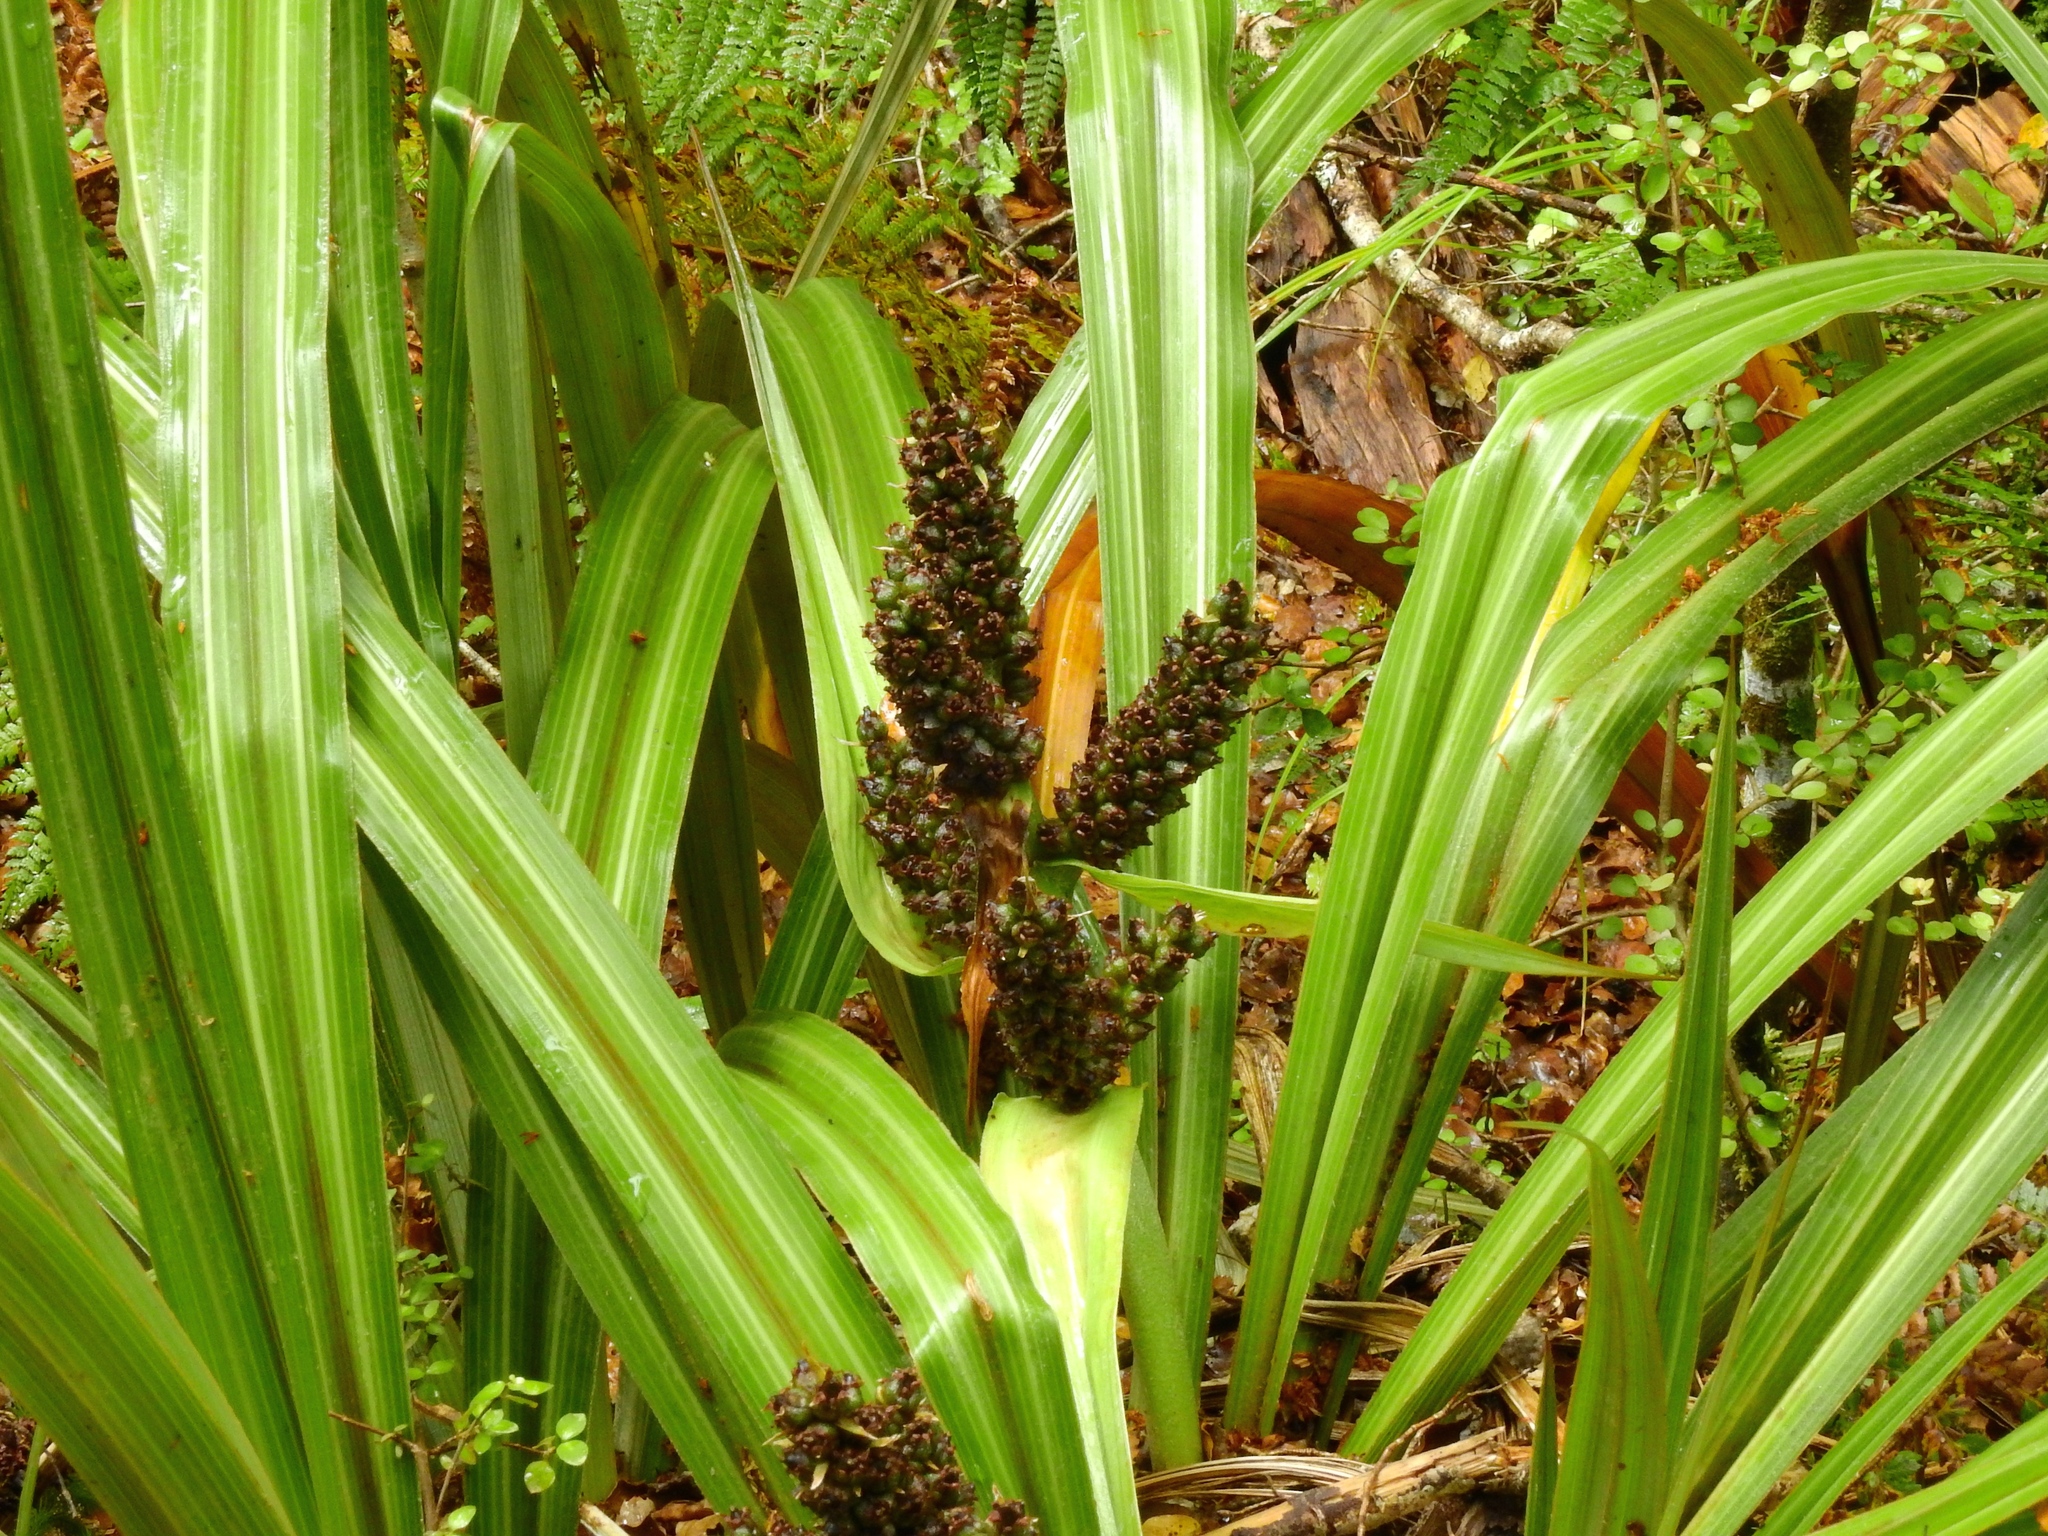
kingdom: Plantae
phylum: Tracheophyta
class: Liliopsida
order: Asparagales
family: Asteliaceae
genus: Astelia
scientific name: Astelia fragrans
